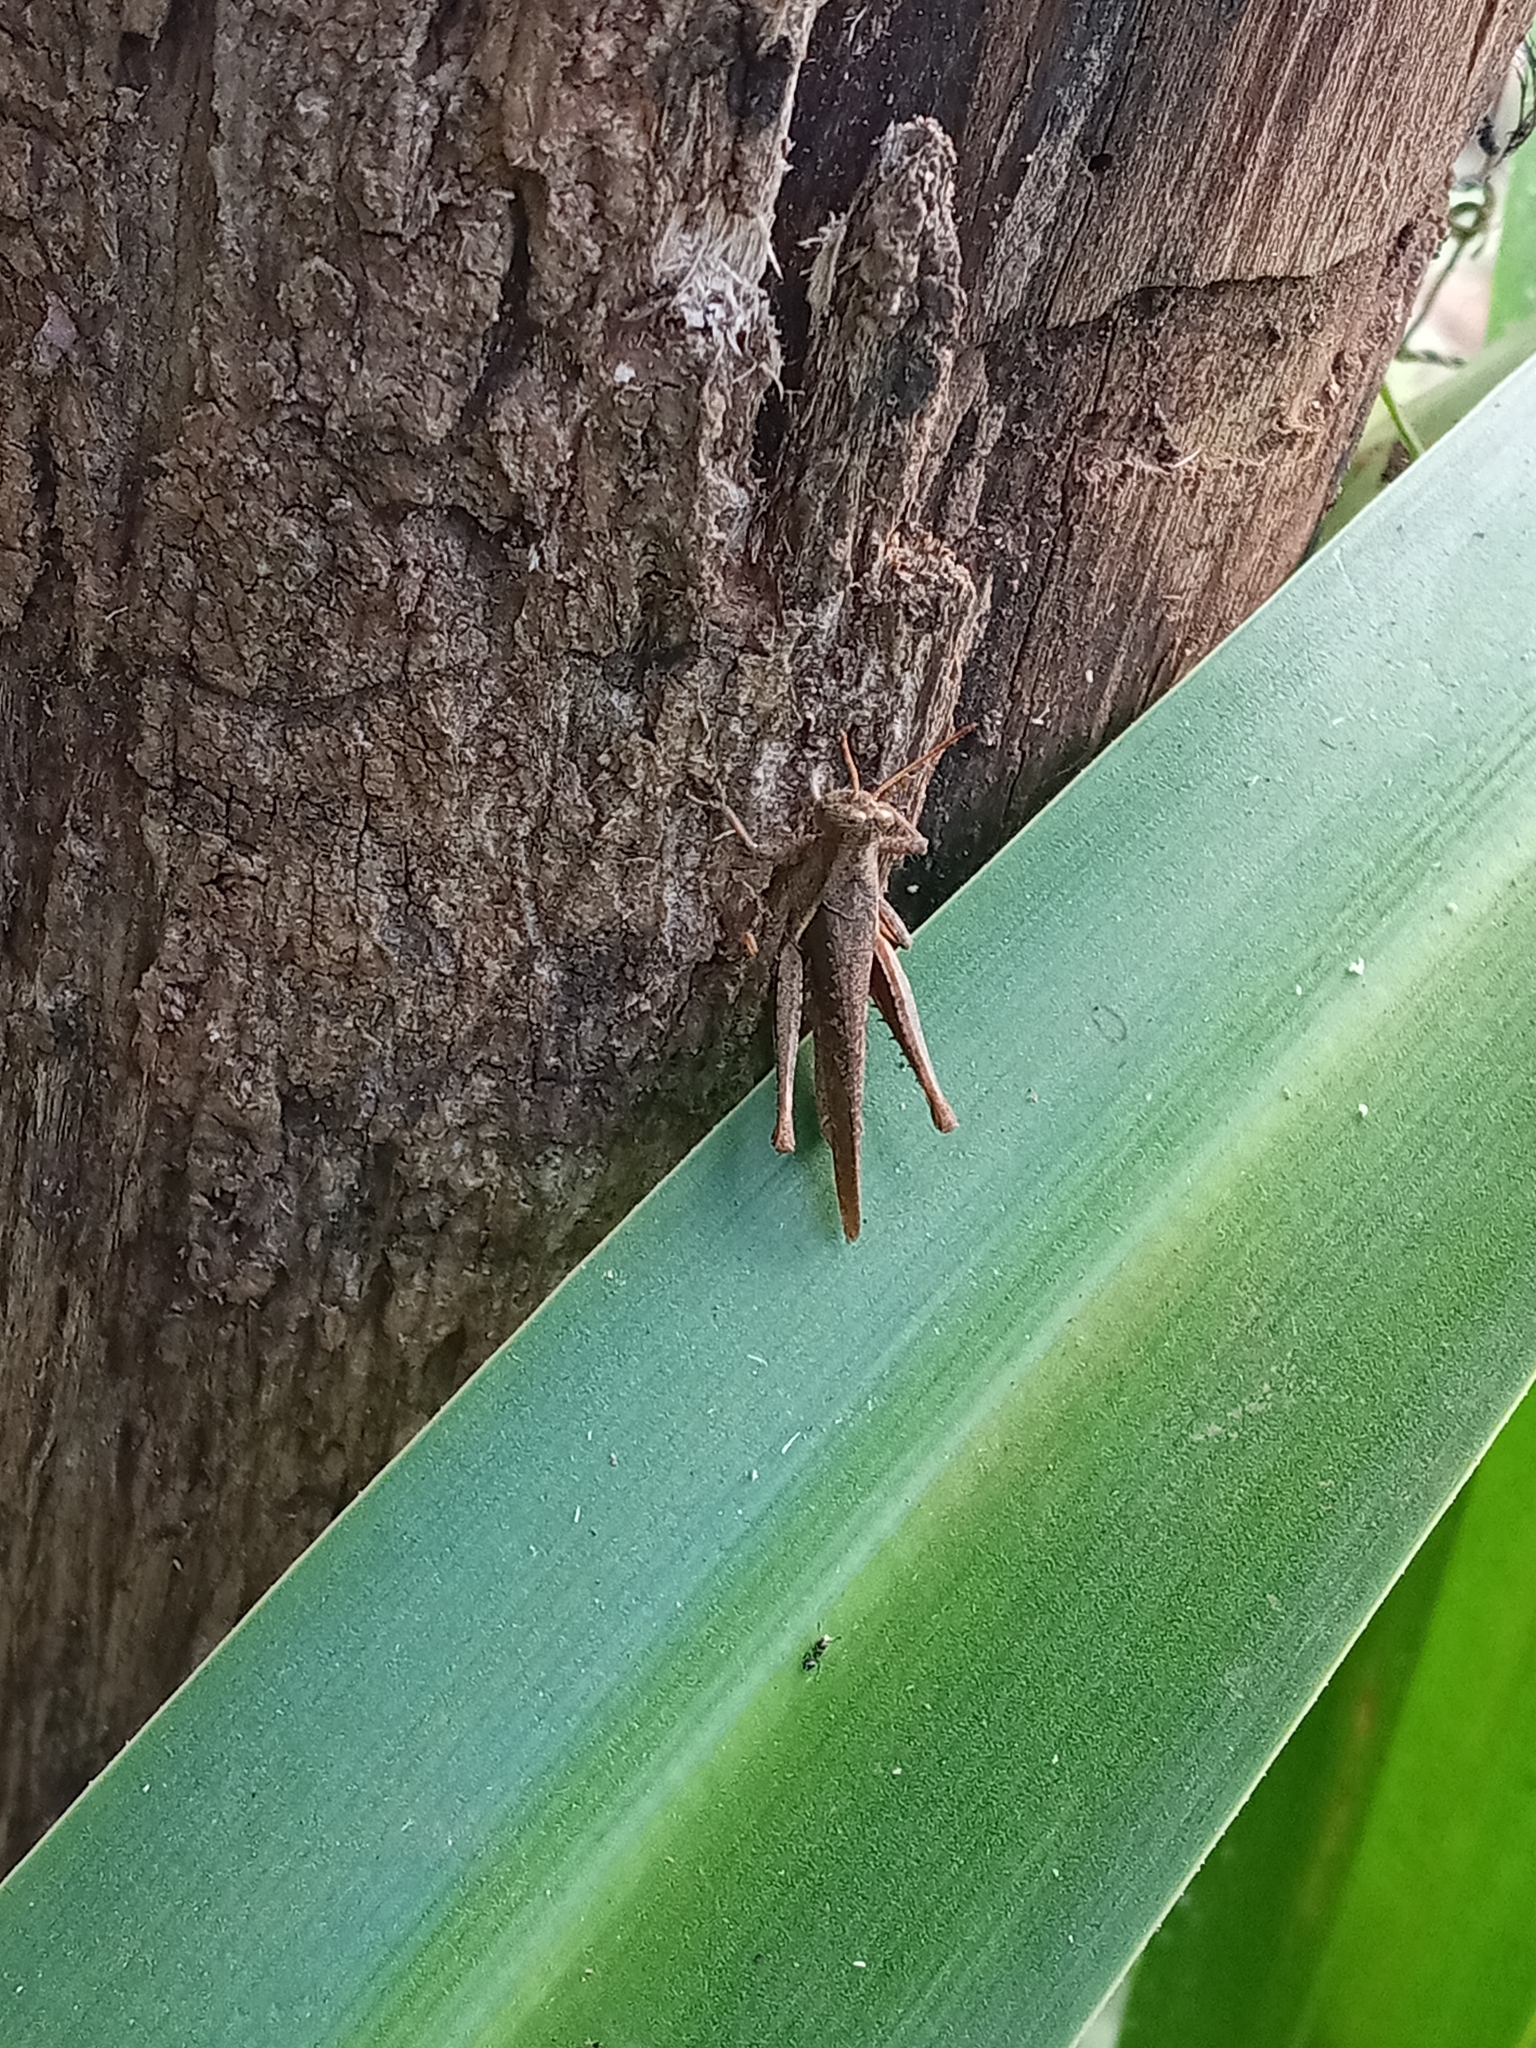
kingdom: Animalia
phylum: Arthropoda
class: Insecta
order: Orthoptera
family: Acrididae
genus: Abracris
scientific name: Abracris flavolineata
